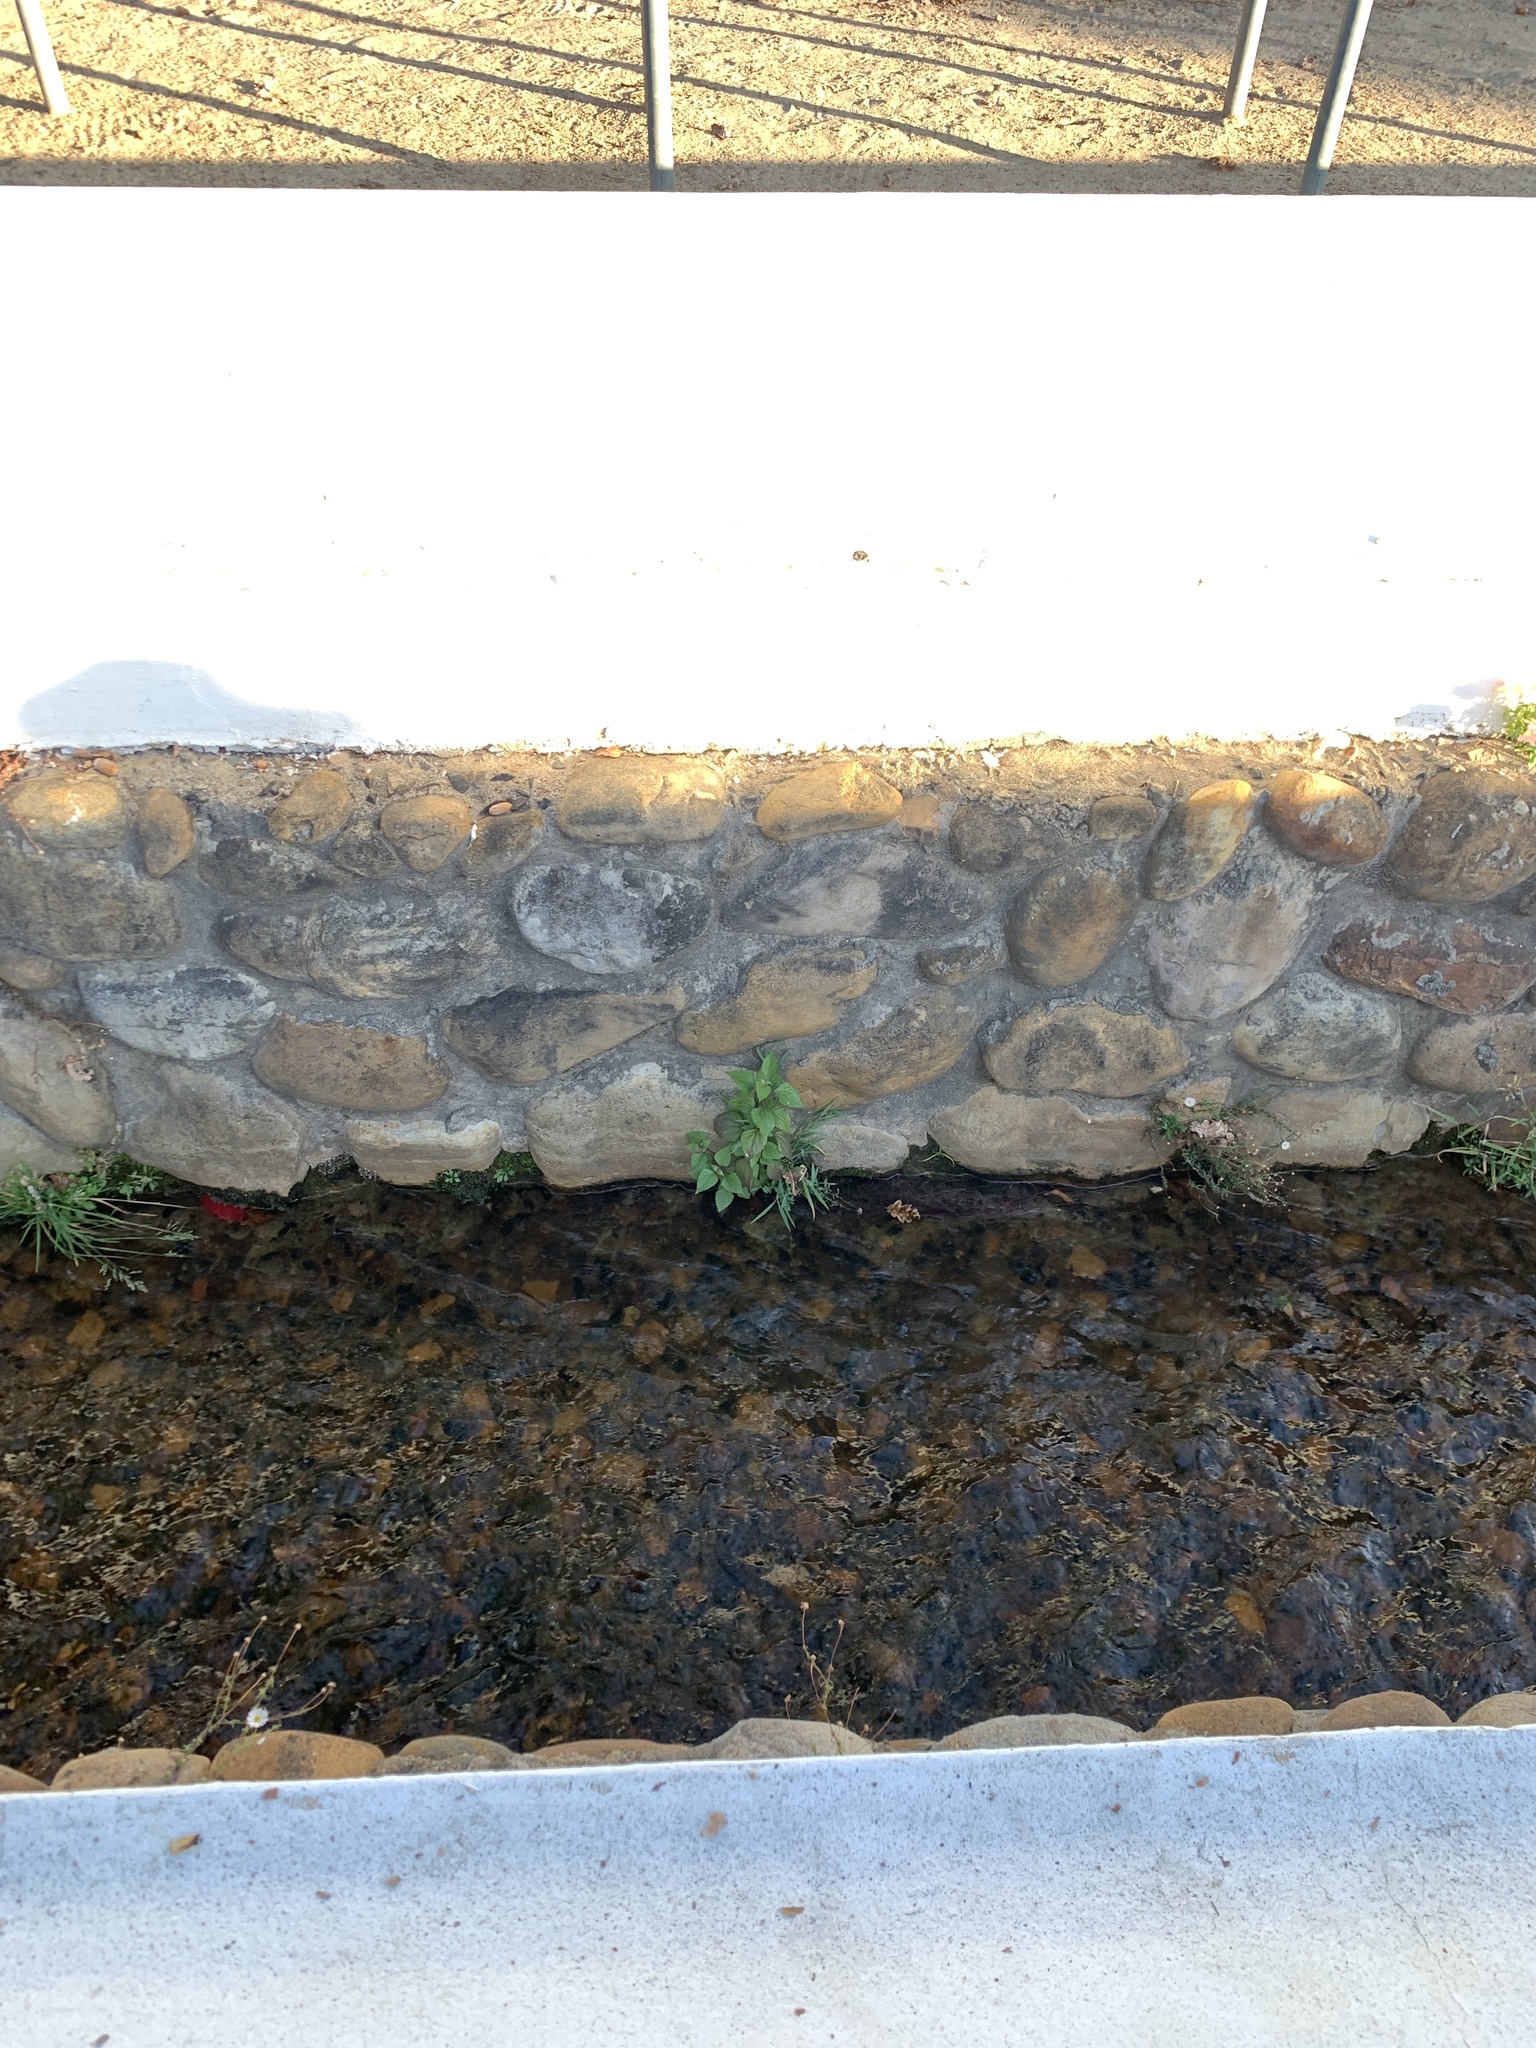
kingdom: Plantae
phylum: Tracheophyta
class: Magnoliopsida
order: Asterales
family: Asteraceae
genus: Ageratina
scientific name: Ageratina adenophora
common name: Sticky snakeroot
